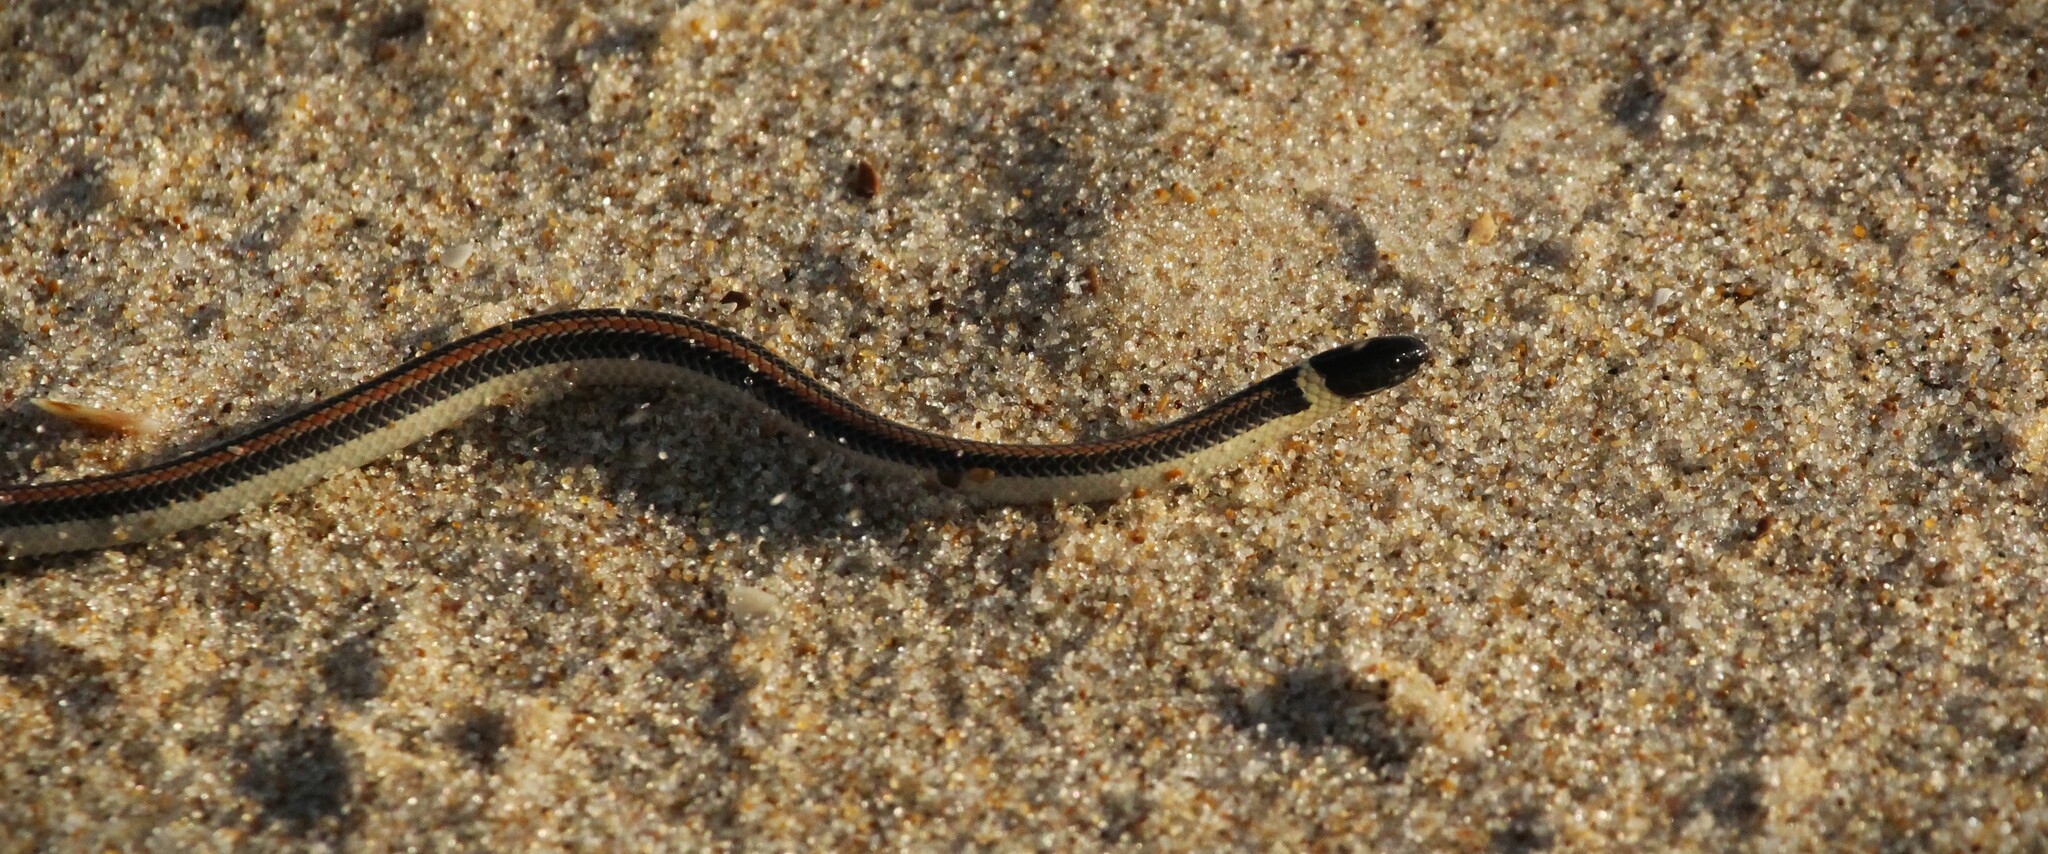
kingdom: Animalia
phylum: Chordata
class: Squamata
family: Colubridae
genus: Phalotris
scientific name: Phalotris lemniscatus
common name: Dumeril's diadem snake
